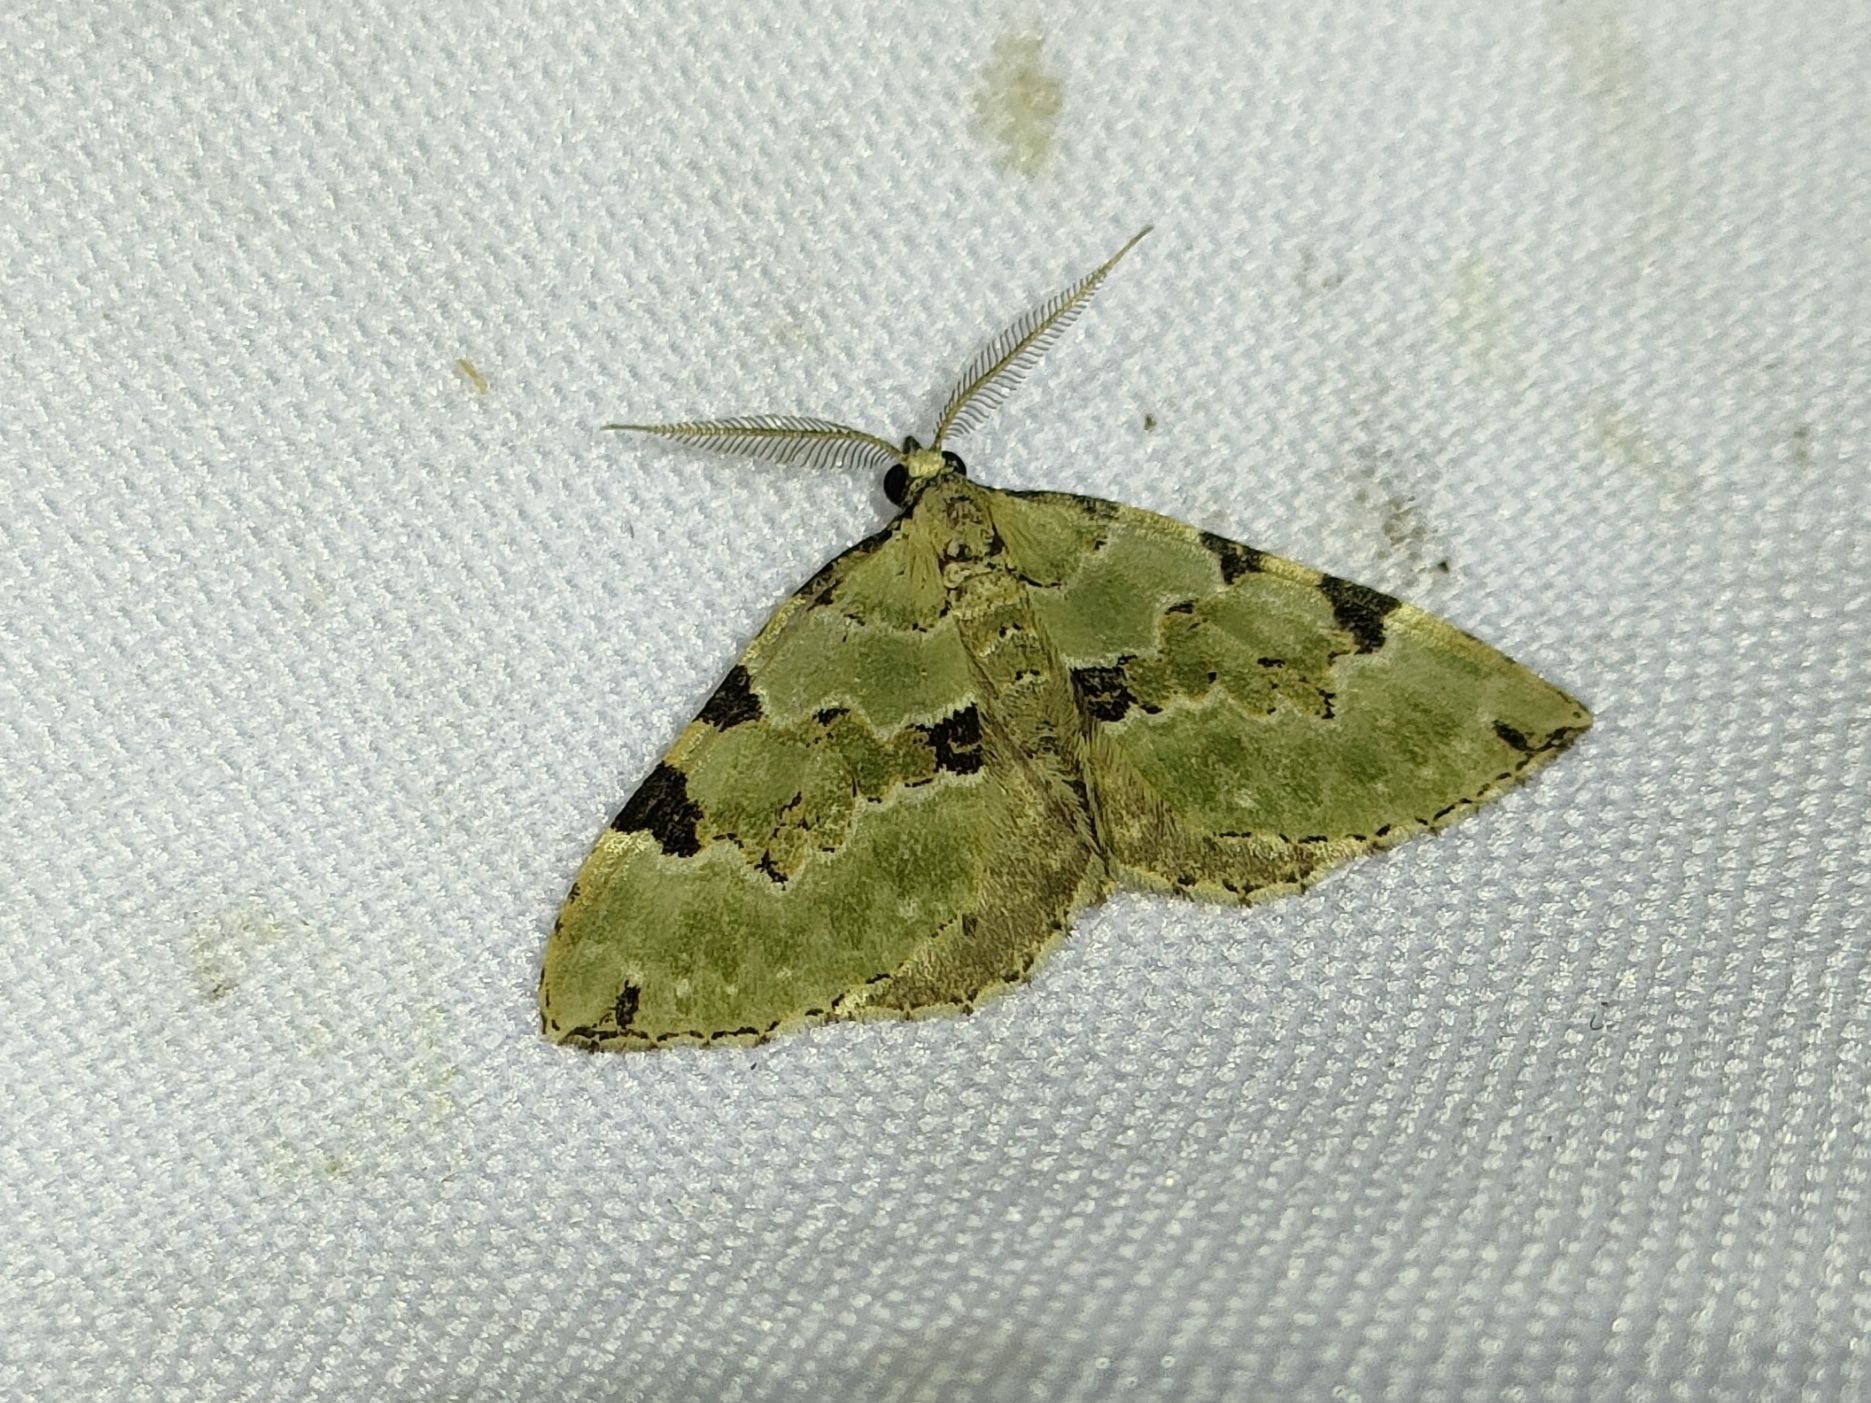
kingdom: Animalia
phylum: Arthropoda
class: Insecta
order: Lepidoptera
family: Geometridae
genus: Colostygia
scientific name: Colostygia pectinataria
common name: Green carpet
